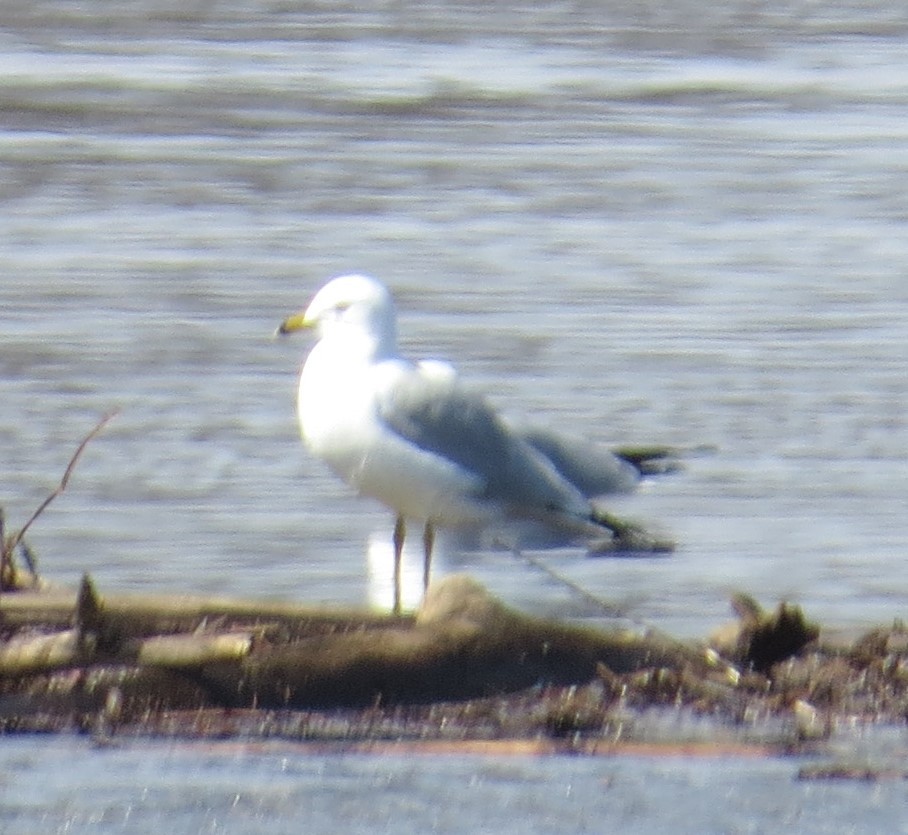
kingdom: Animalia
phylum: Chordata
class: Aves
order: Charadriiformes
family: Laridae
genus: Larus
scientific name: Larus delawarensis
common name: Ring-billed gull
